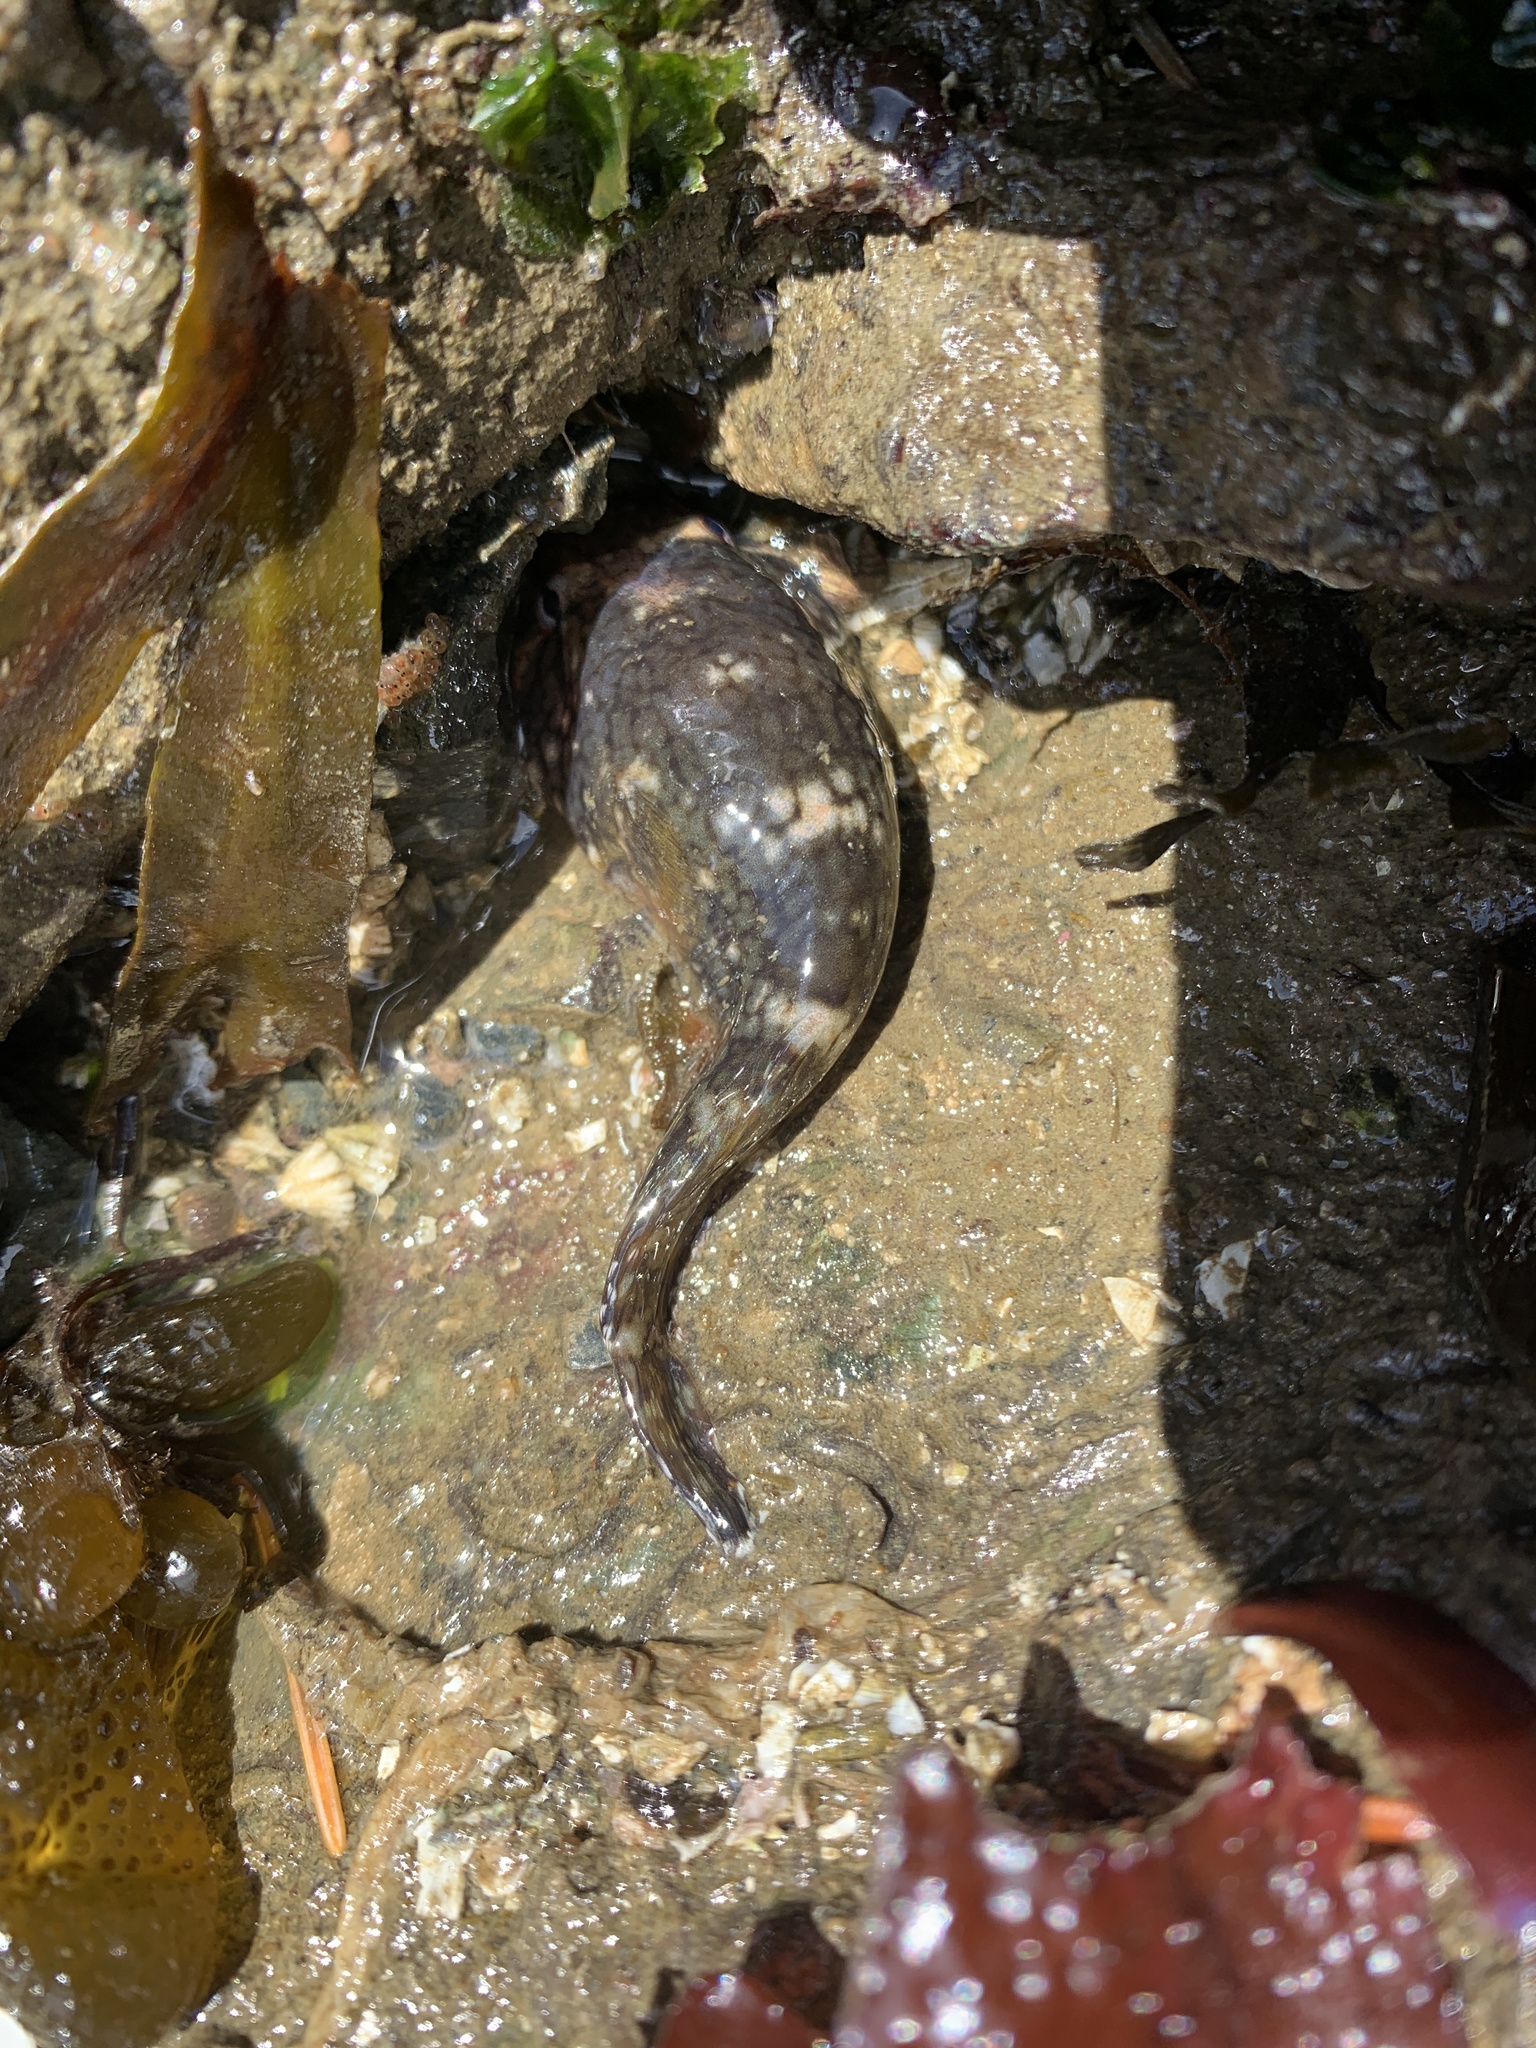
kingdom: Animalia
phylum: Chordata
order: Gobiesociformes
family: Gobiesocidae
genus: Gobiesox
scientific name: Gobiesox maeandricus
